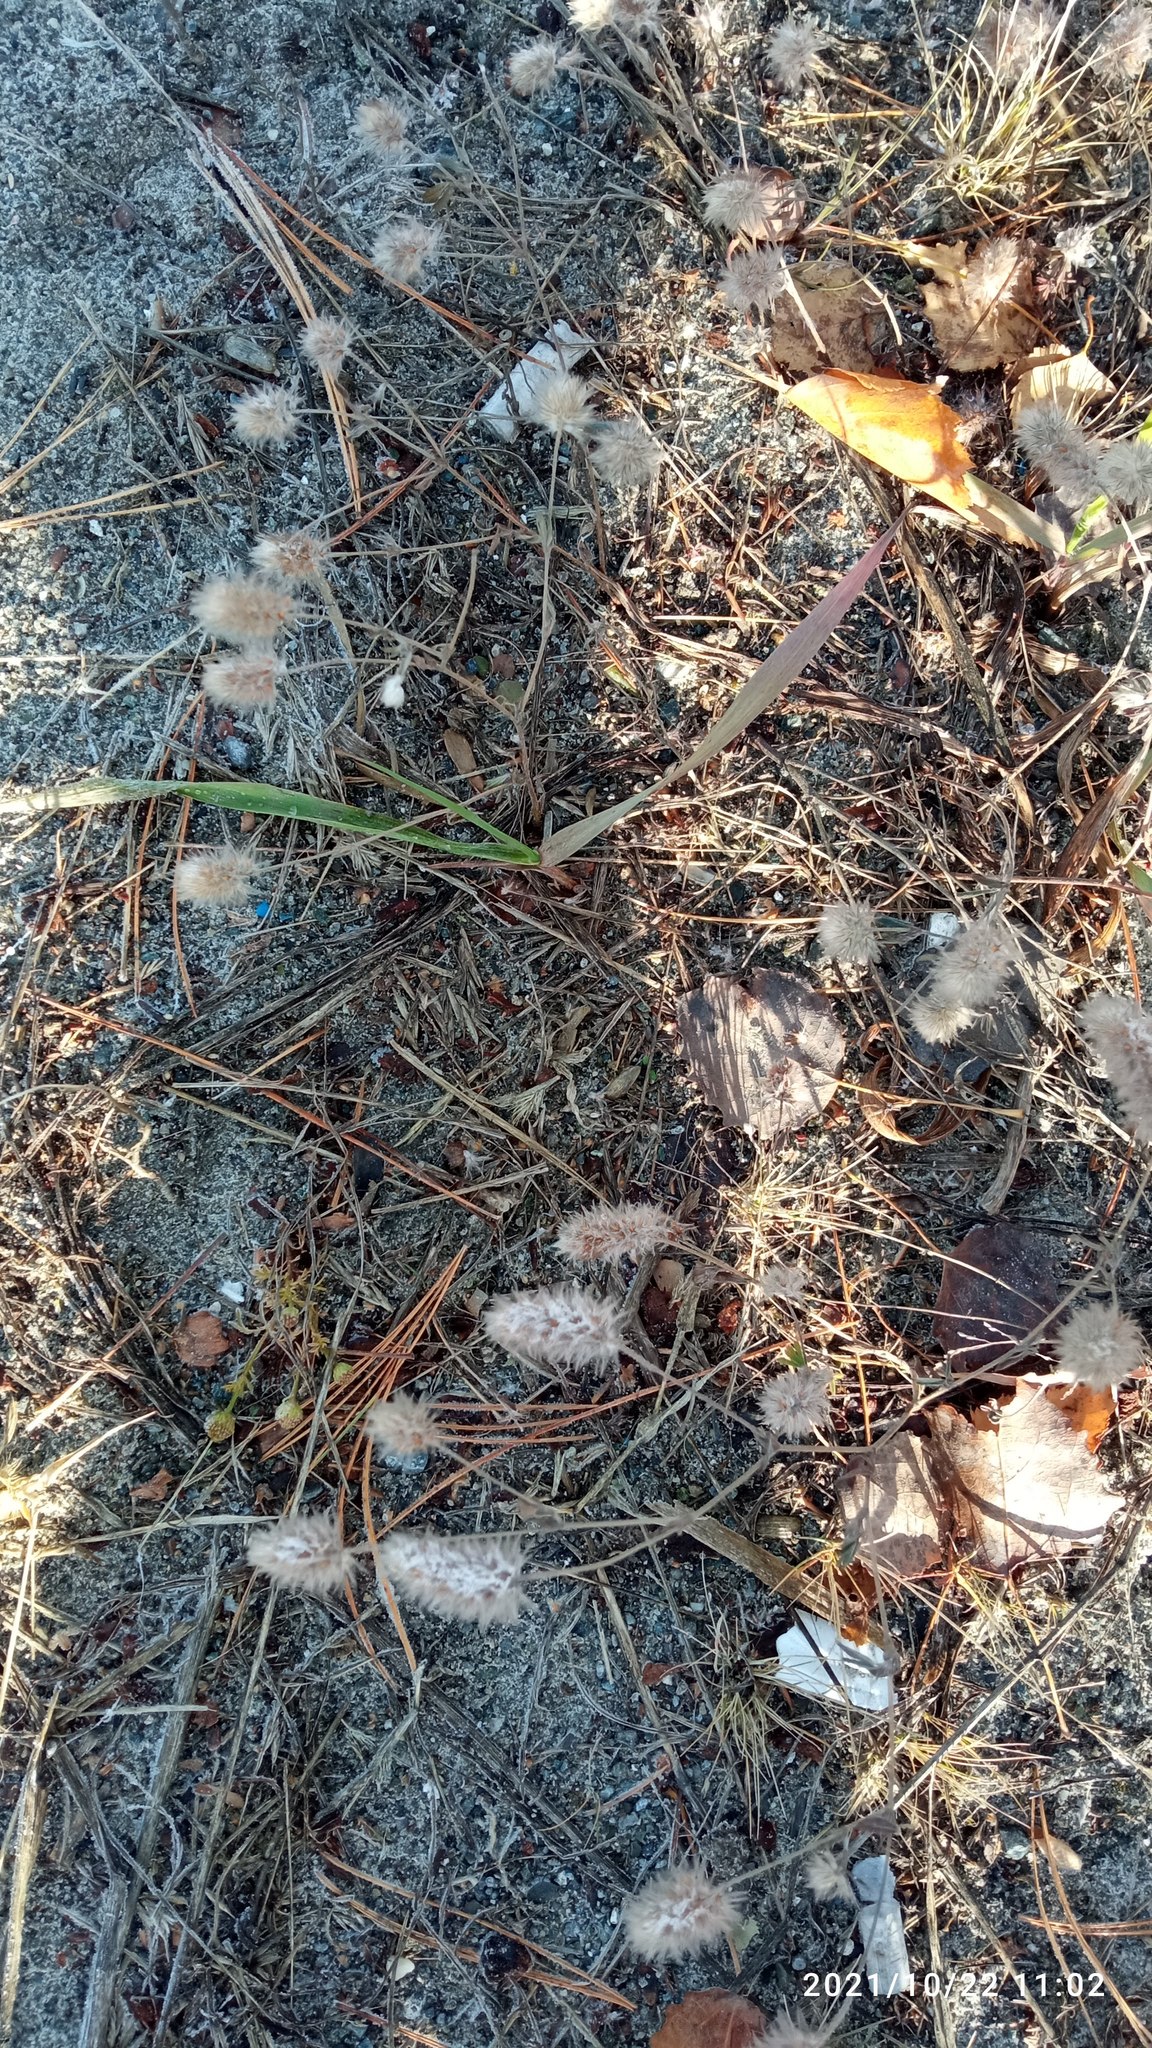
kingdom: Plantae
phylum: Tracheophyta
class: Magnoliopsida
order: Fabales
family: Fabaceae
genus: Trifolium
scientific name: Trifolium arvense
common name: Hare's-foot clover
